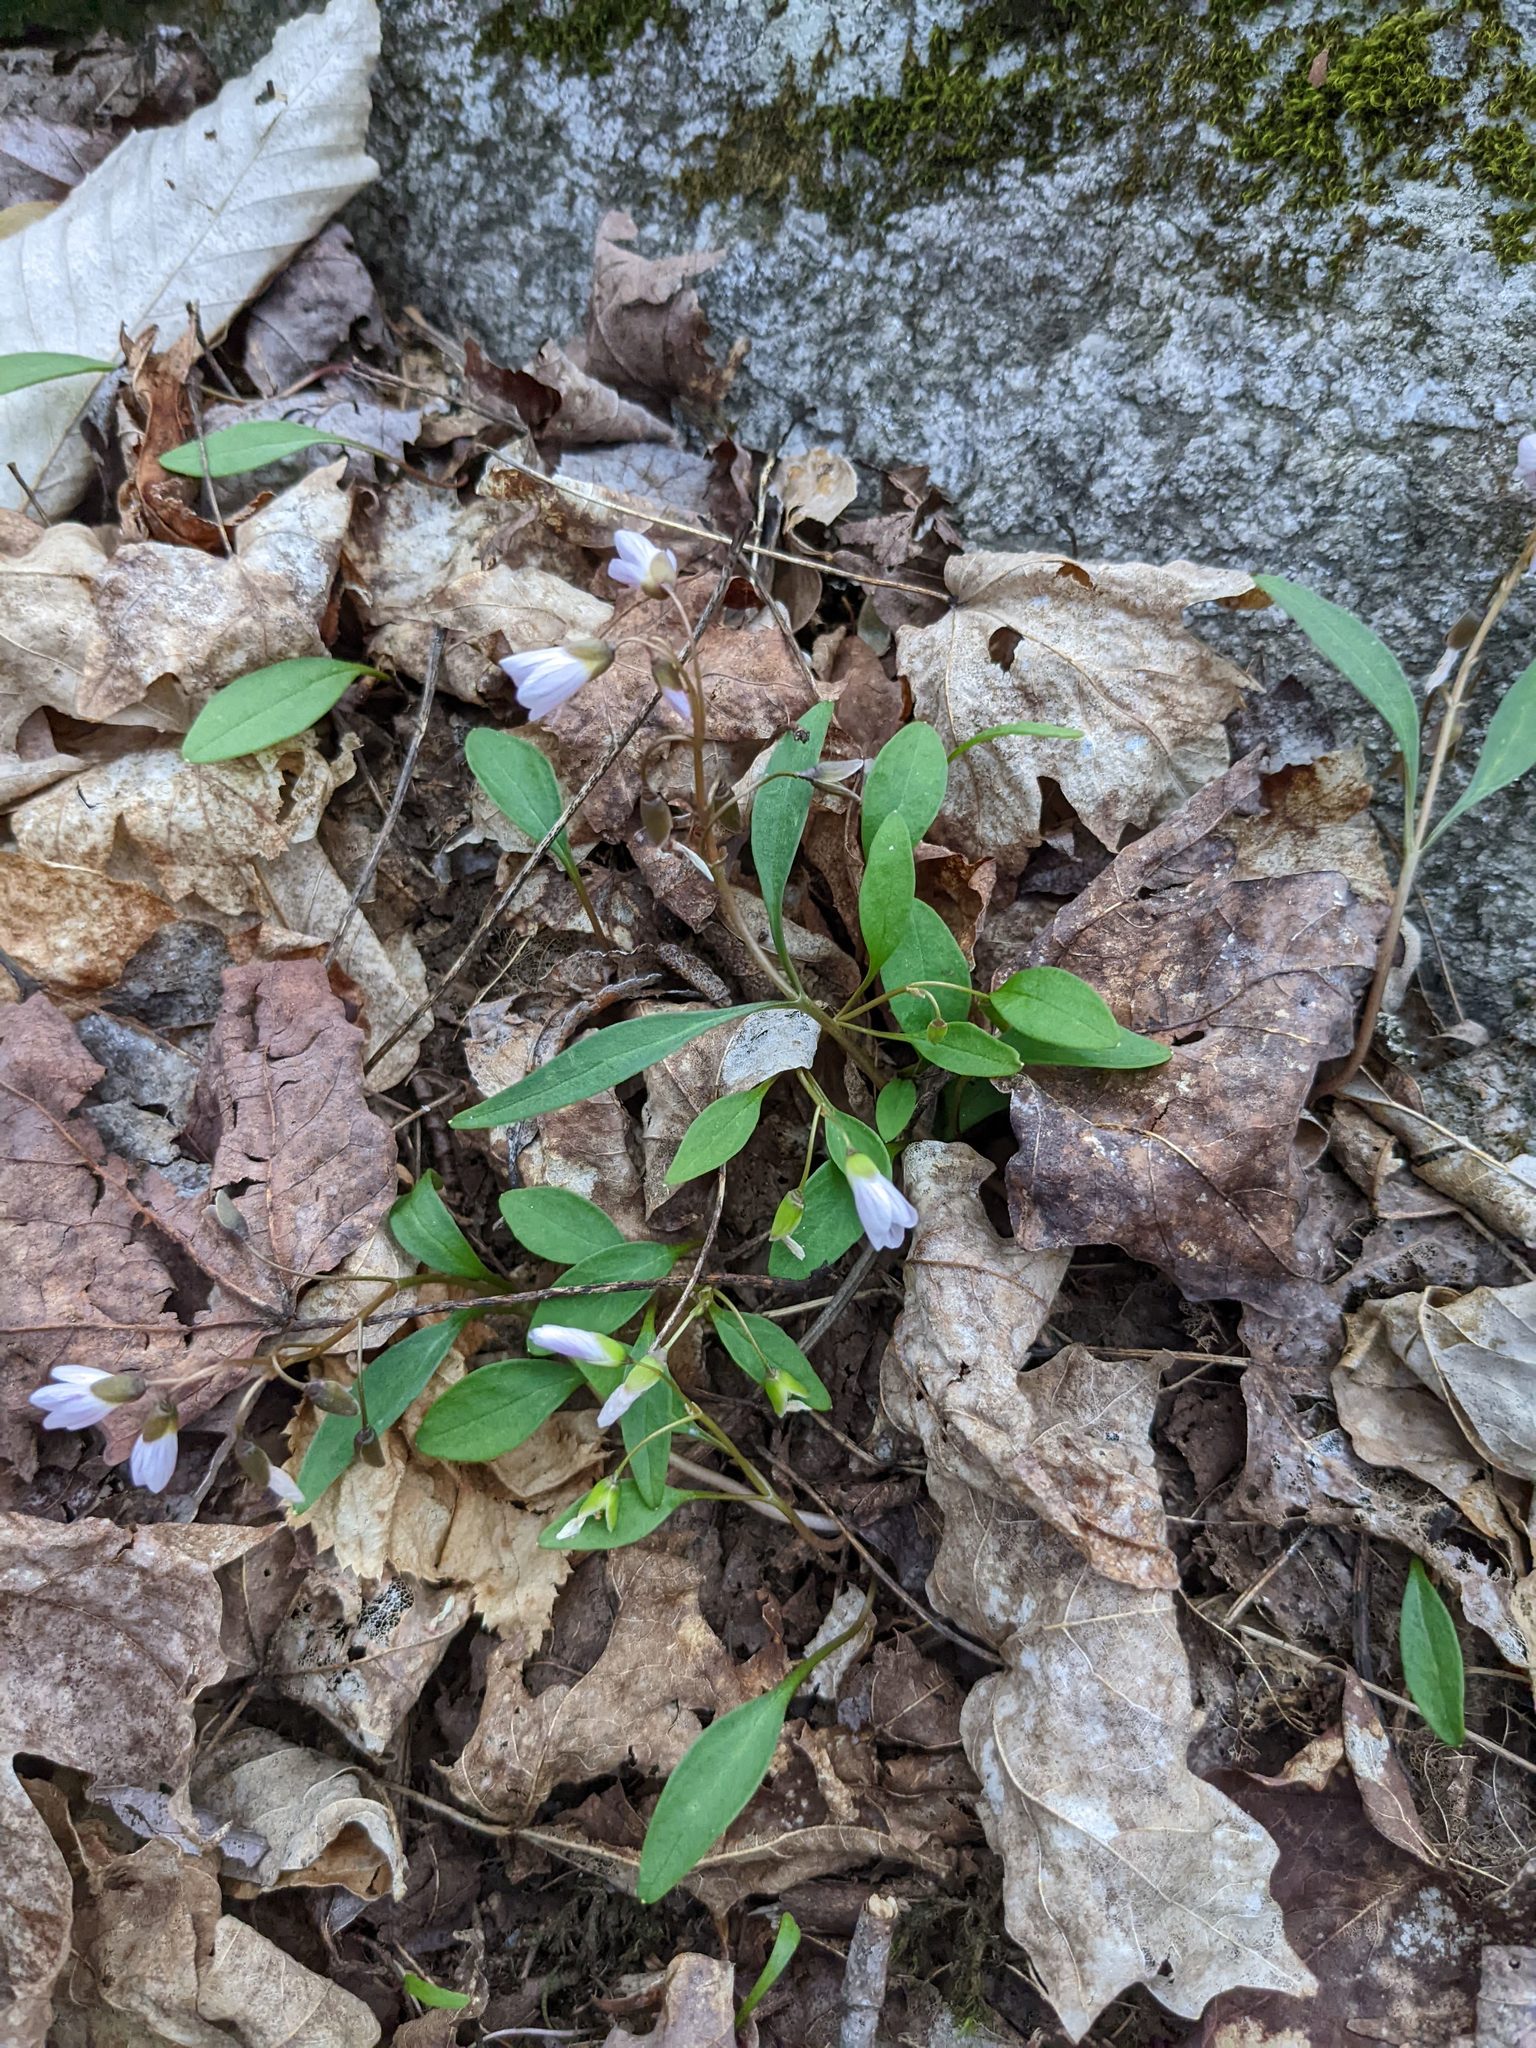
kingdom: Plantae
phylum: Tracheophyta
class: Magnoliopsida
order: Caryophyllales
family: Montiaceae
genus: Claytonia
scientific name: Claytonia caroliniana
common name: Carolina spring beauty
